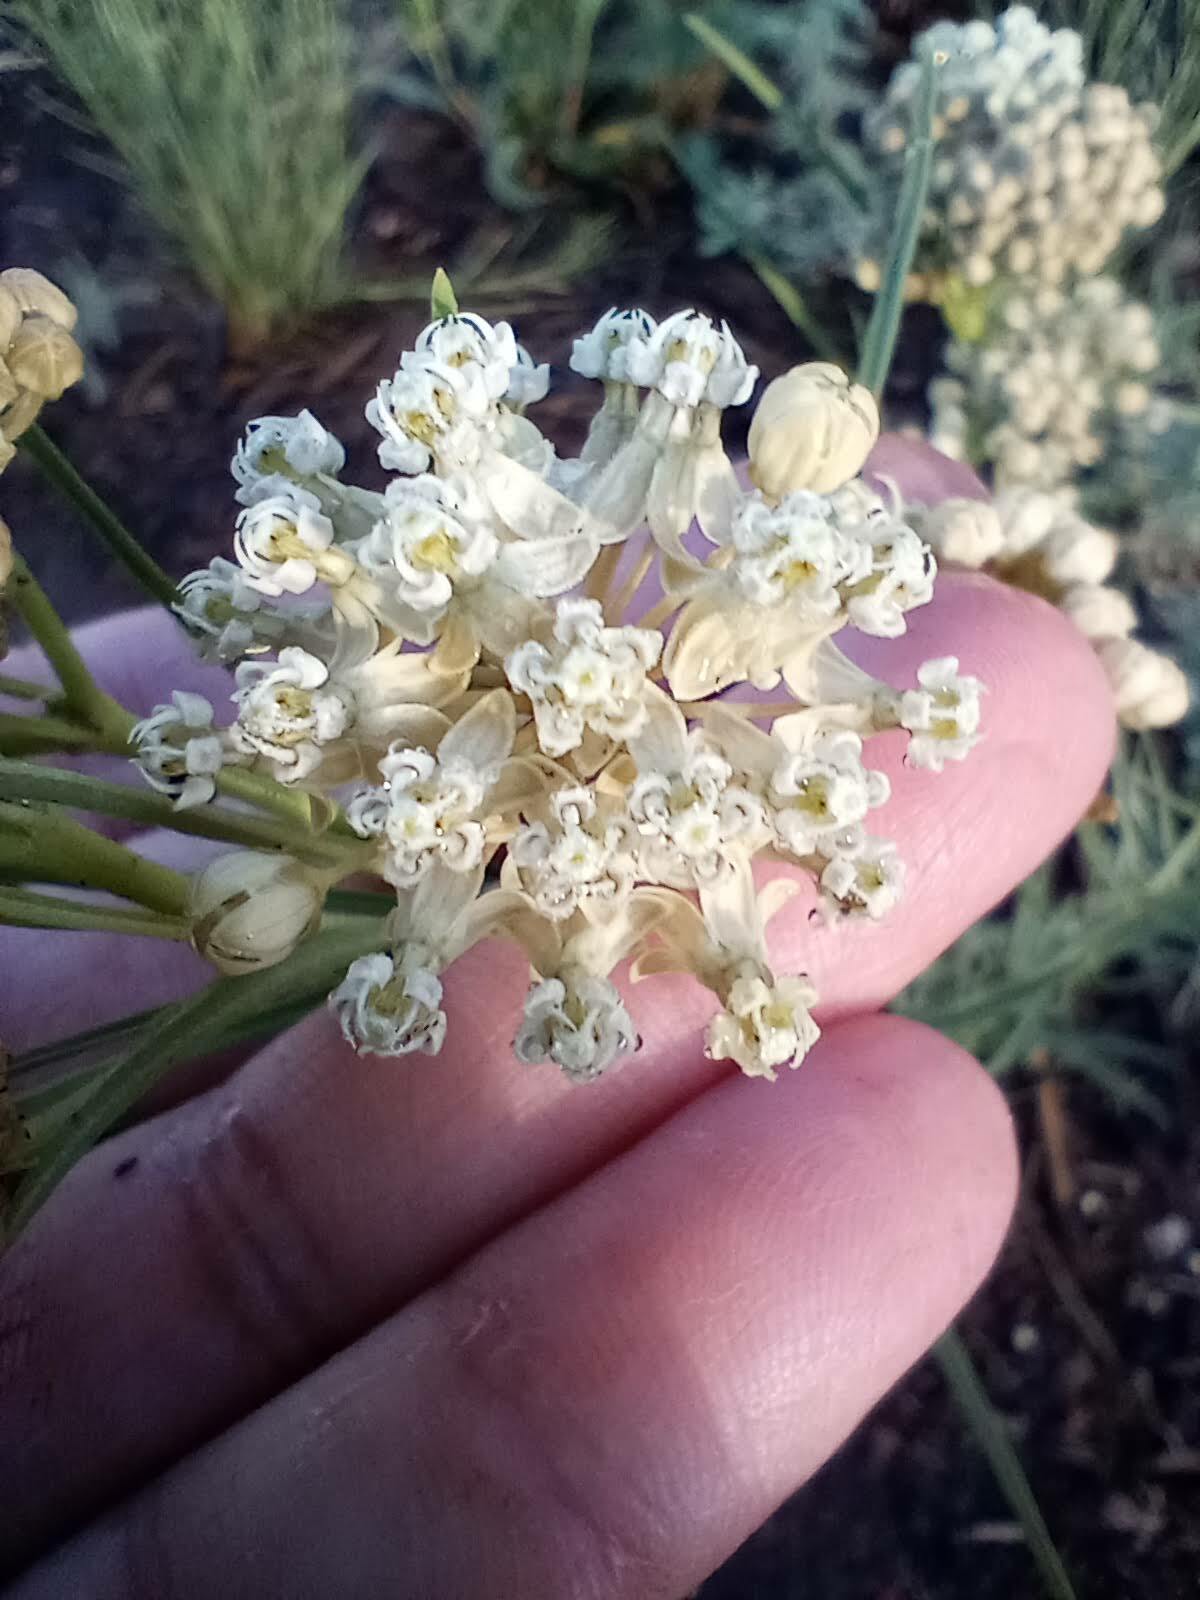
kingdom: Plantae
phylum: Tracheophyta
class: Magnoliopsida
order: Gentianales
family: Apocynaceae
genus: Asclepias
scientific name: Asclepias subverticillata
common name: Horsetail milkweed
